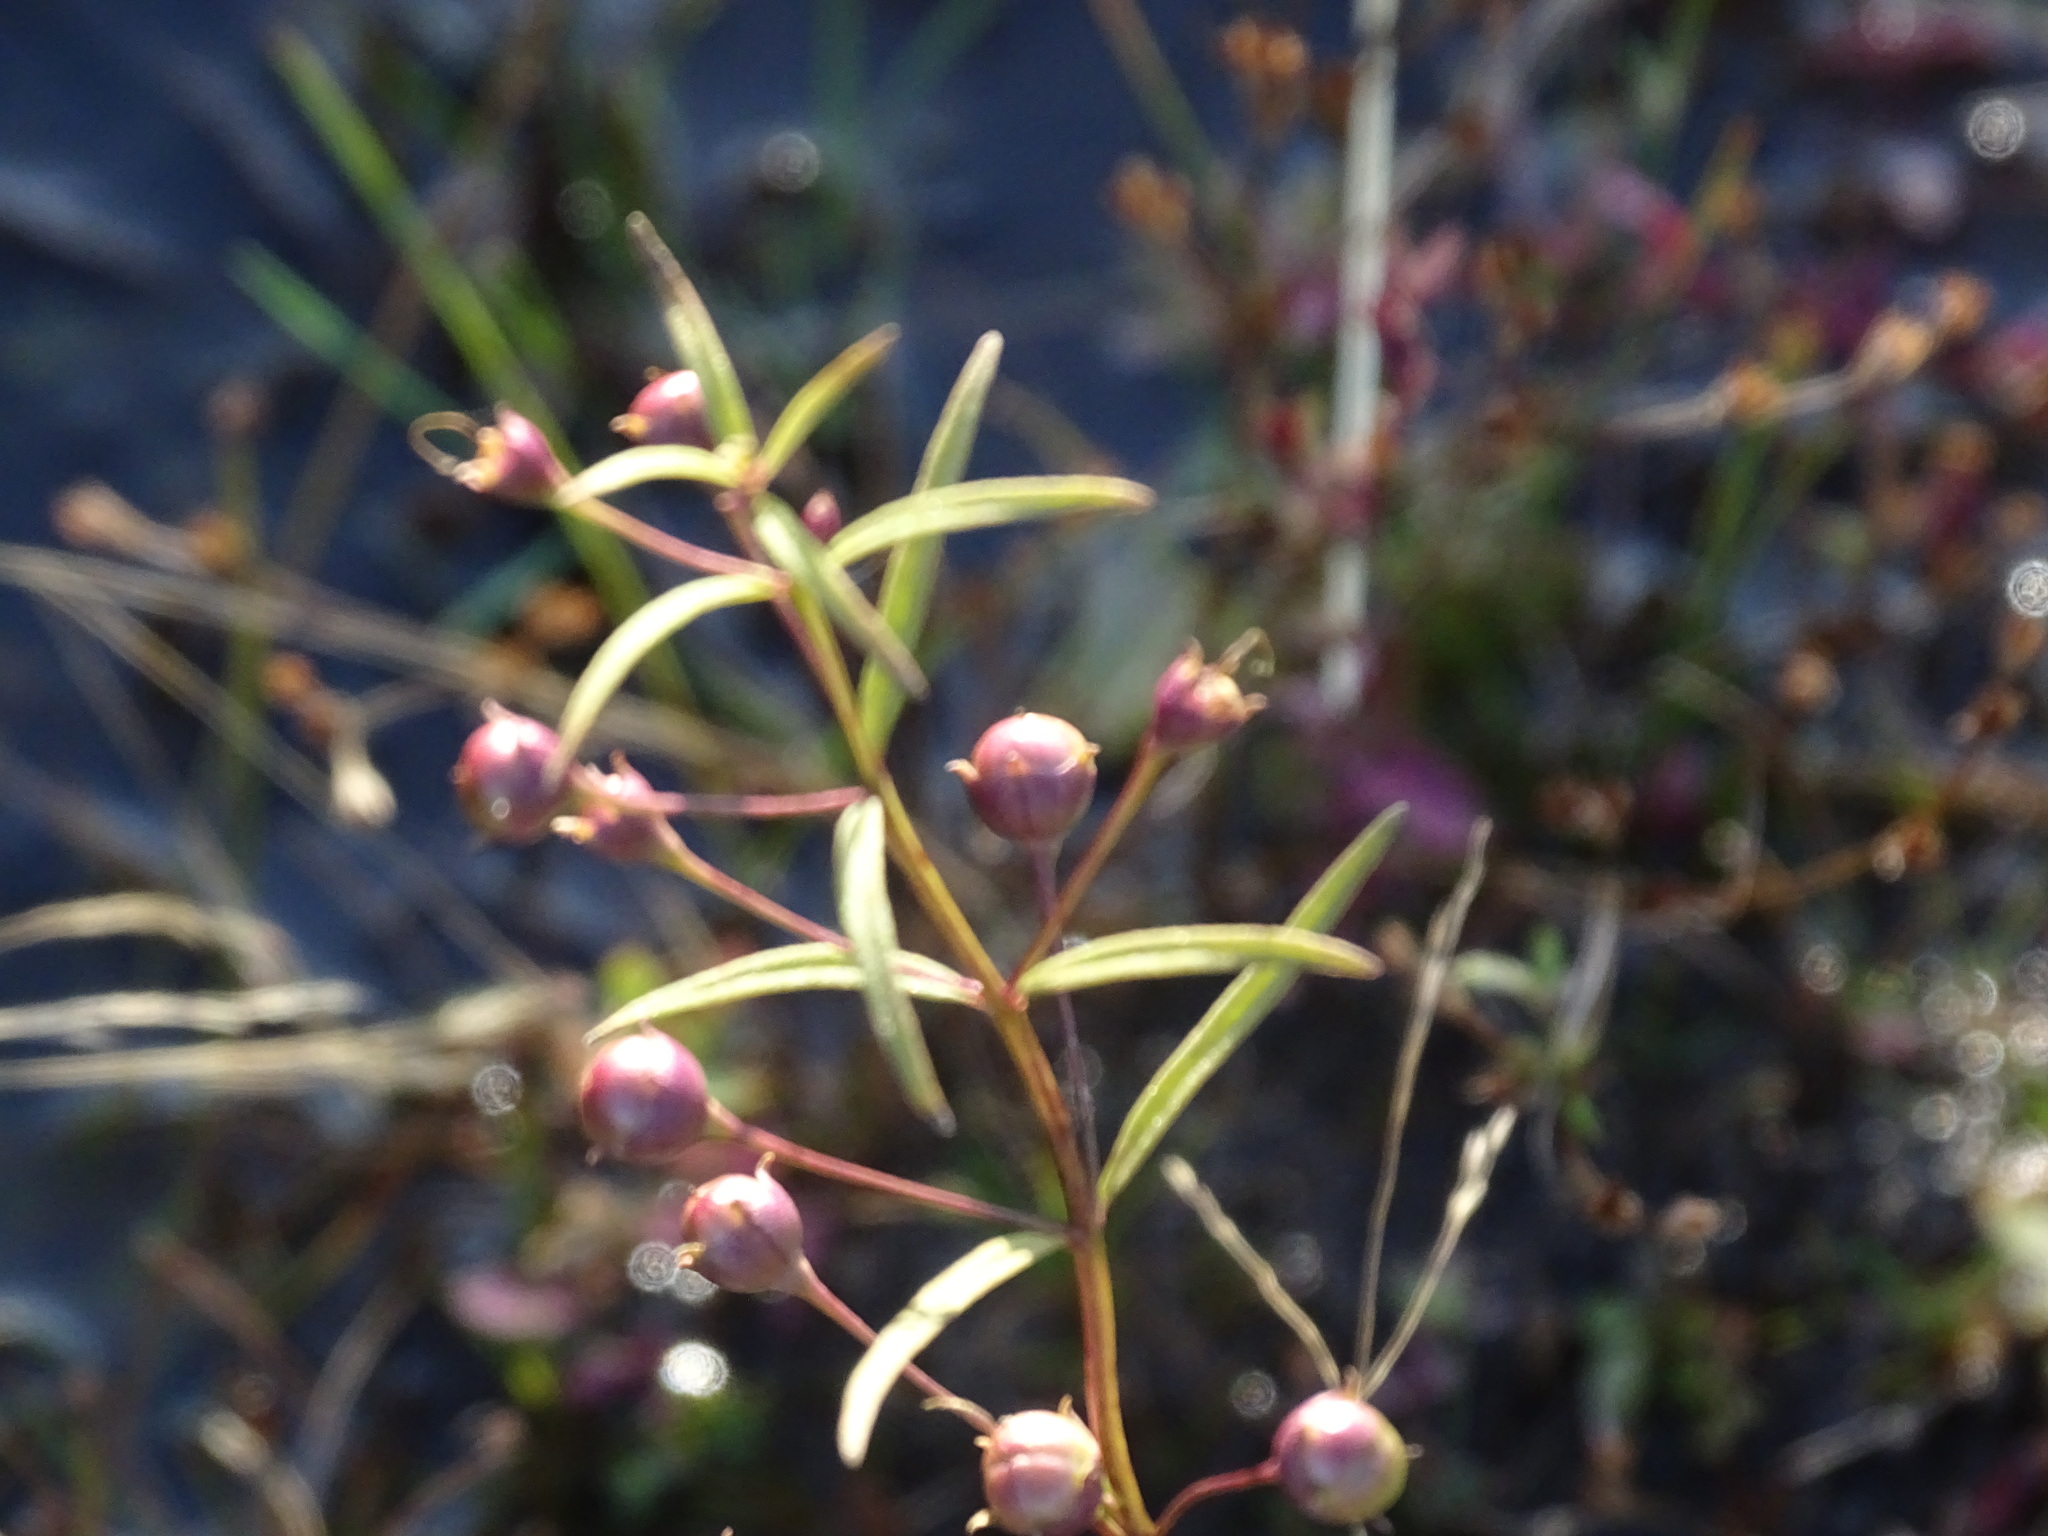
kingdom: Plantae
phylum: Tracheophyta
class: Magnoliopsida
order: Lamiales
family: Orobanchaceae
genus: Agalinis
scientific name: Agalinis tenuifolia
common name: Slender agalinis
